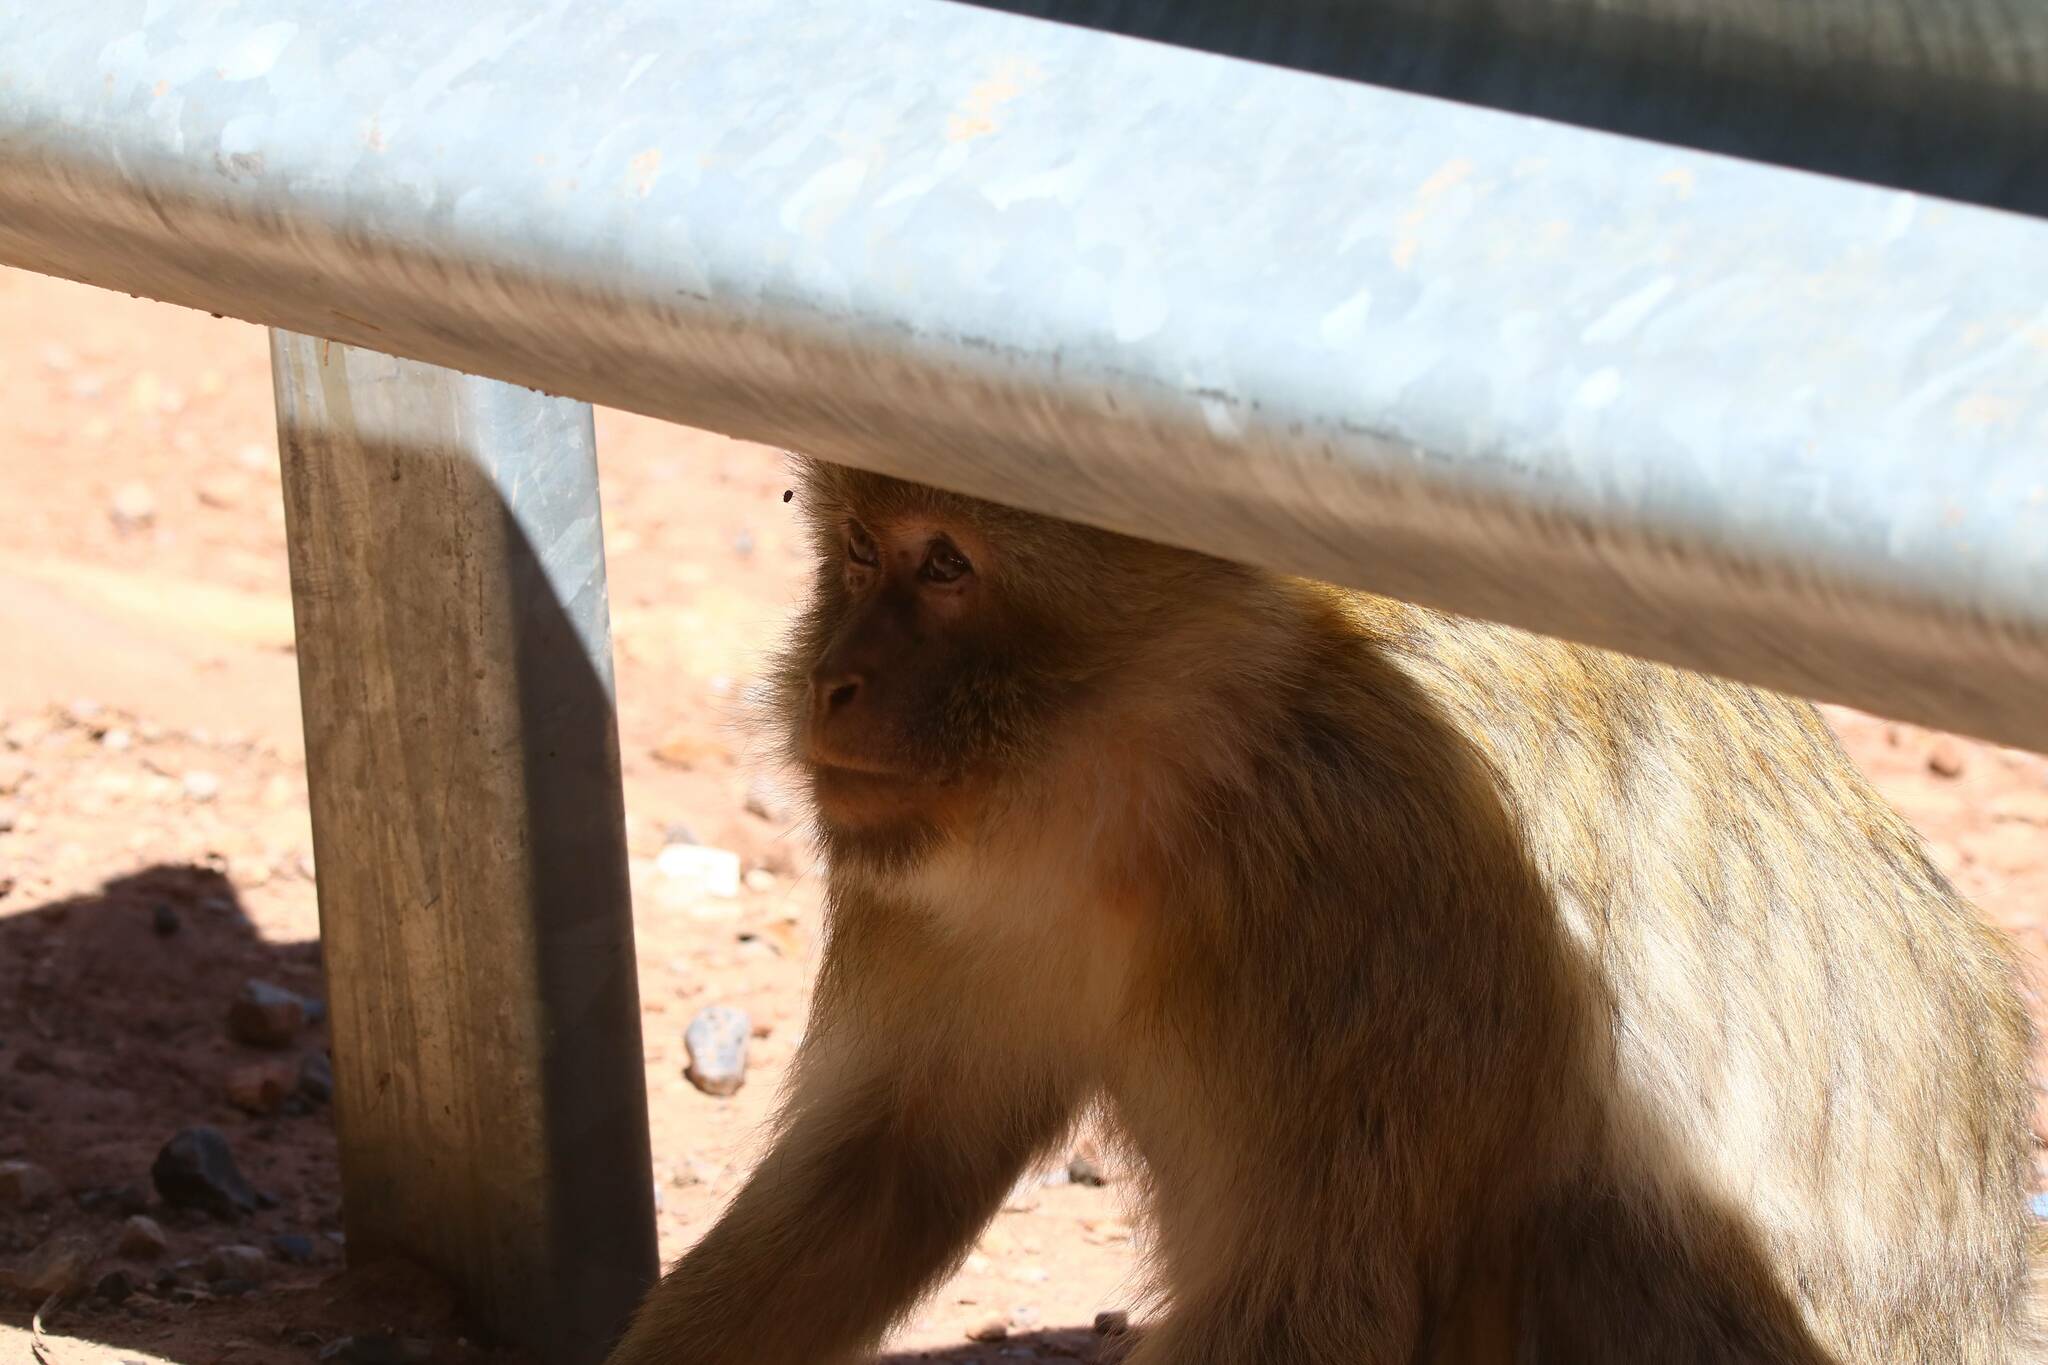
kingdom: Animalia
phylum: Chordata
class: Mammalia
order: Primates
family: Cercopithecidae
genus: Macaca
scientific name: Macaca sylvanus
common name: Barbary macaque
